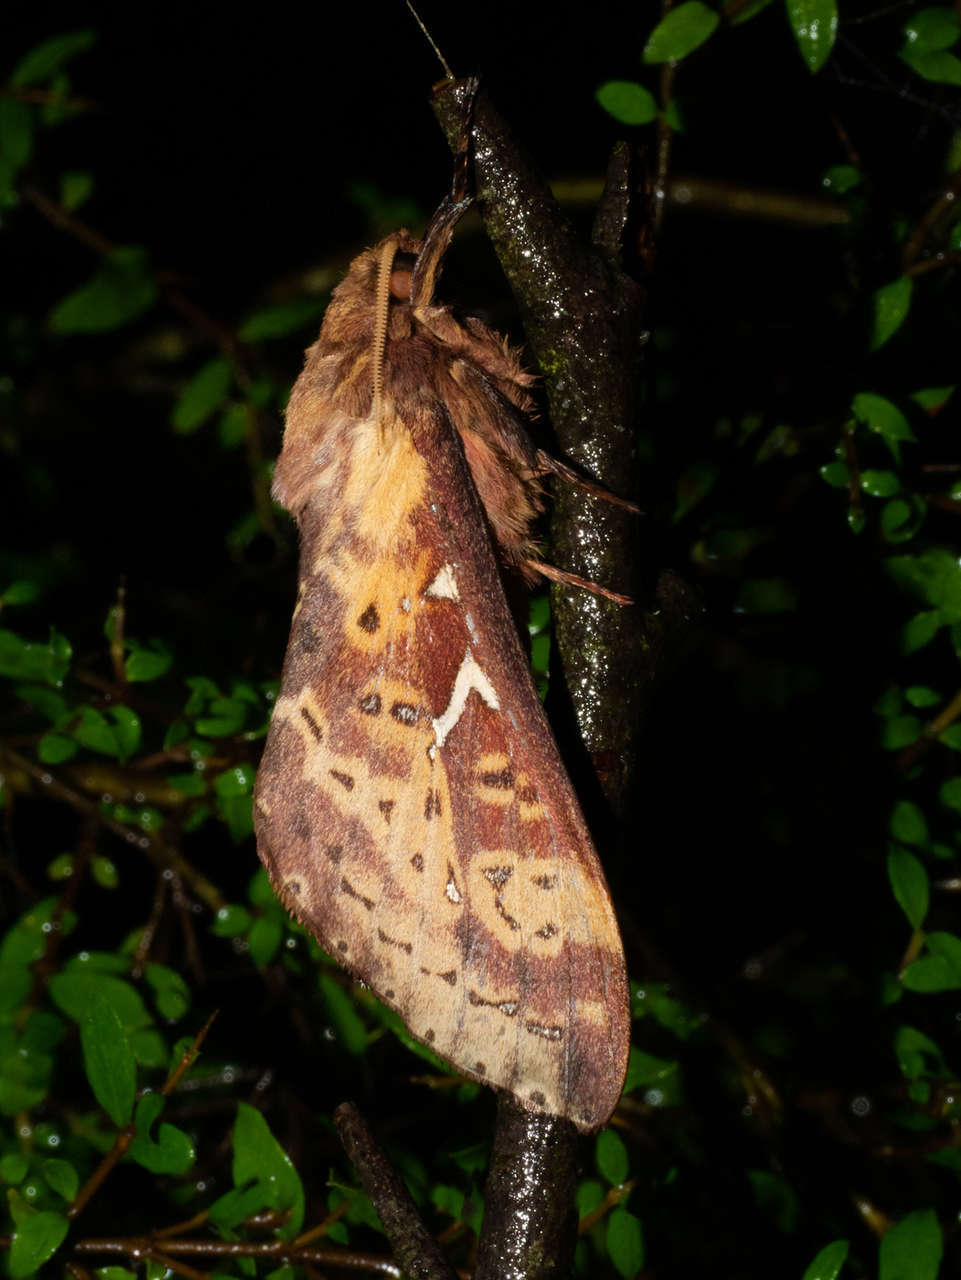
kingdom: Animalia
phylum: Arthropoda
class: Insecta
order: Lepidoptera
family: Hepialidae
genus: Oxycanus
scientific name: Oxycanus sirpus
